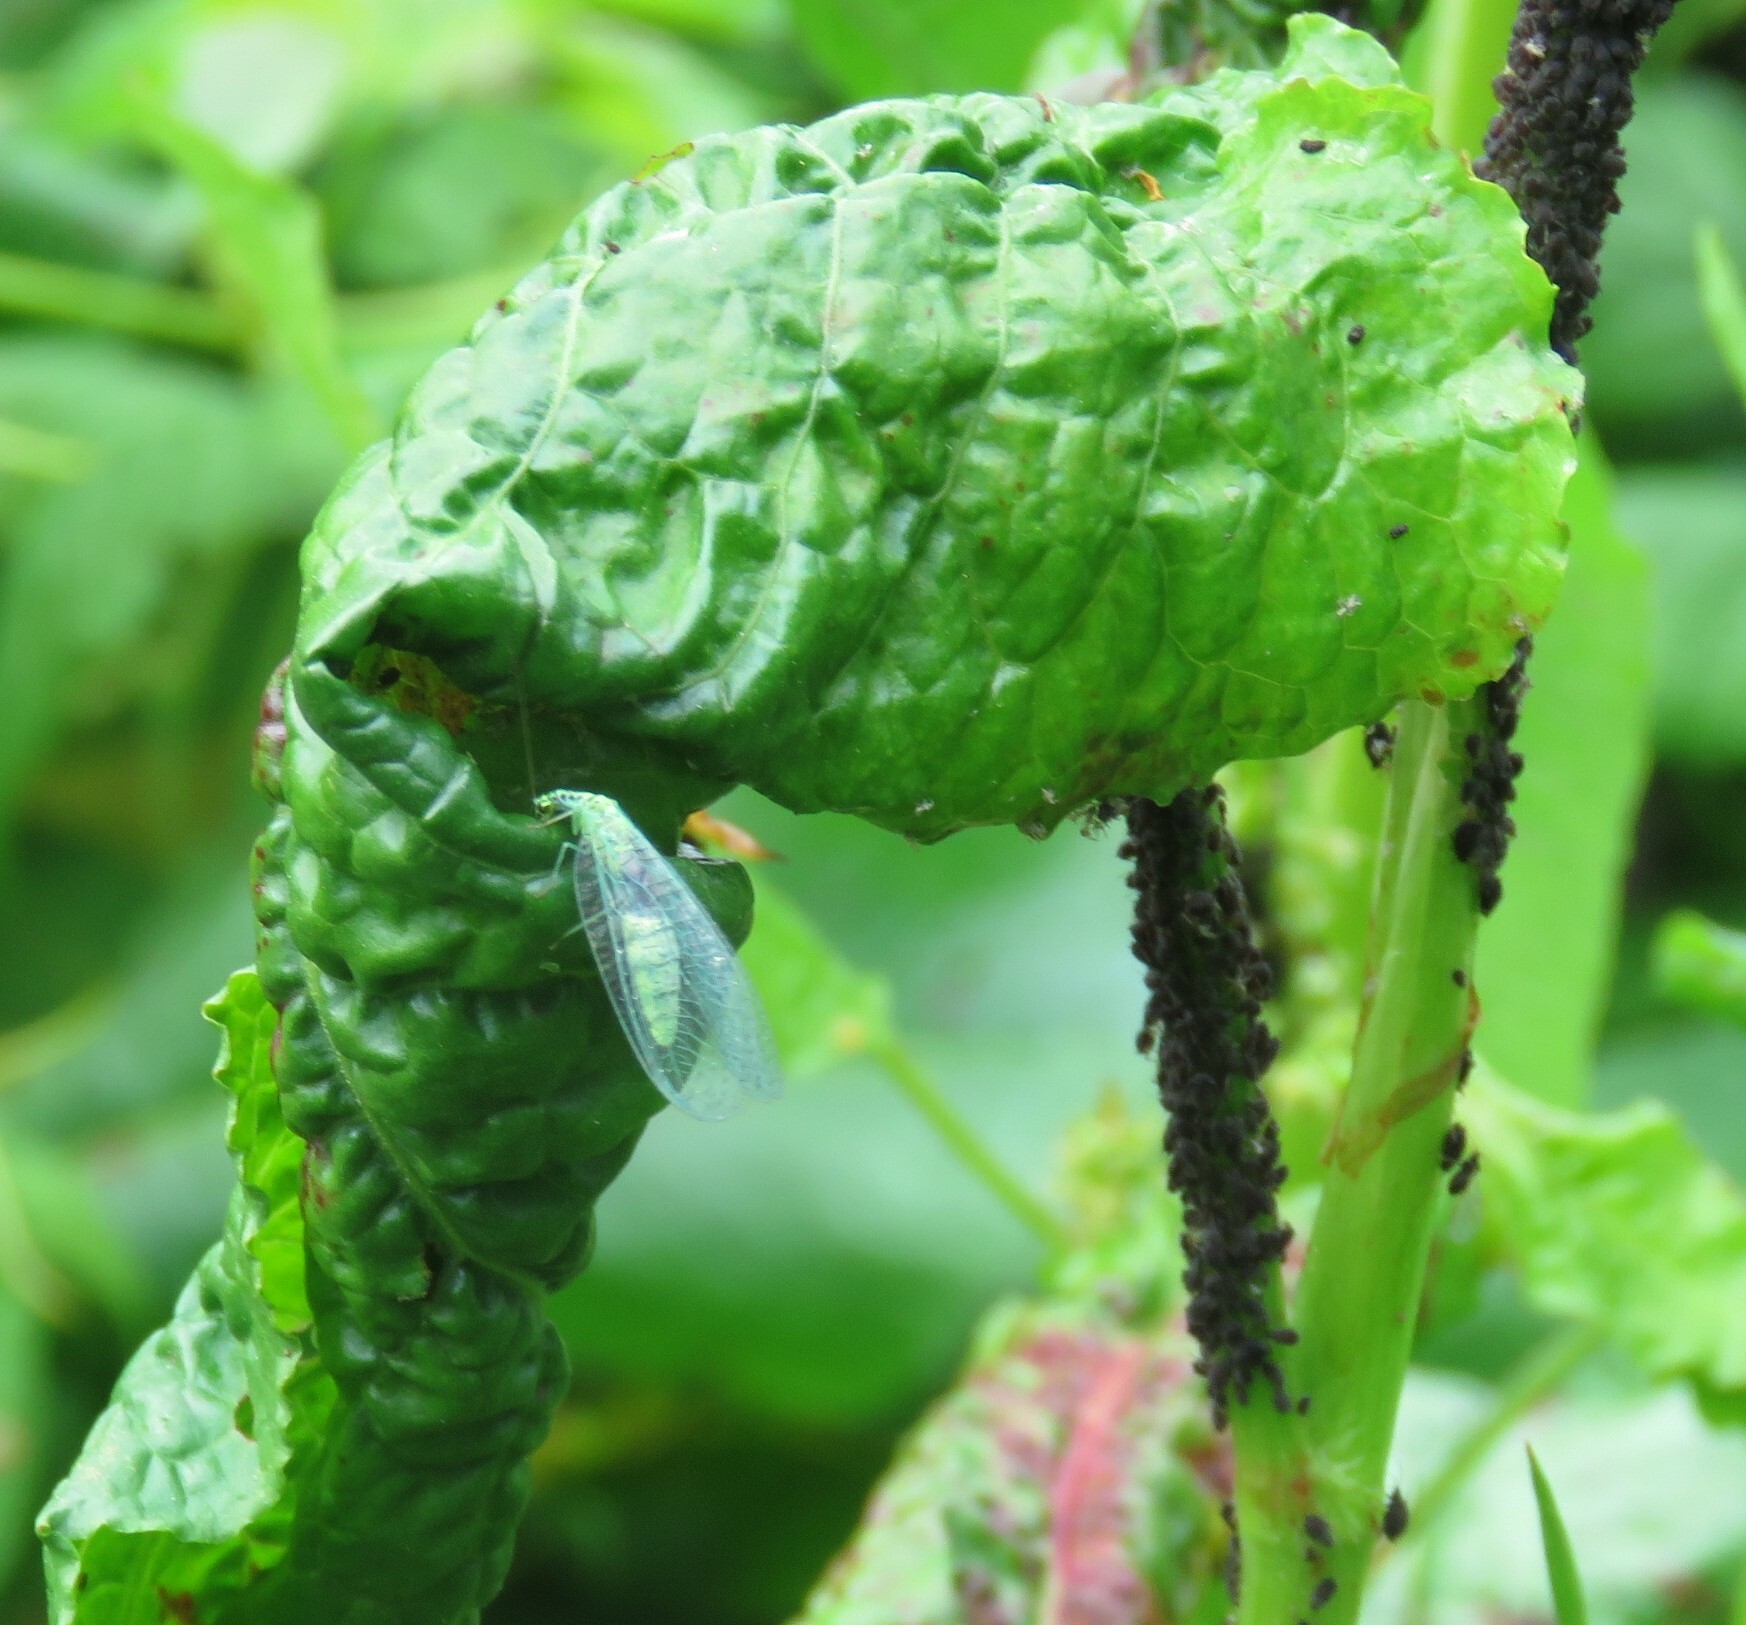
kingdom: Animalia
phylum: Arthropoda
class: Insecta
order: Neuroptera
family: Chrysopidae
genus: Chrysopa
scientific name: Chrysopa chi
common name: X-marked green lacewing
